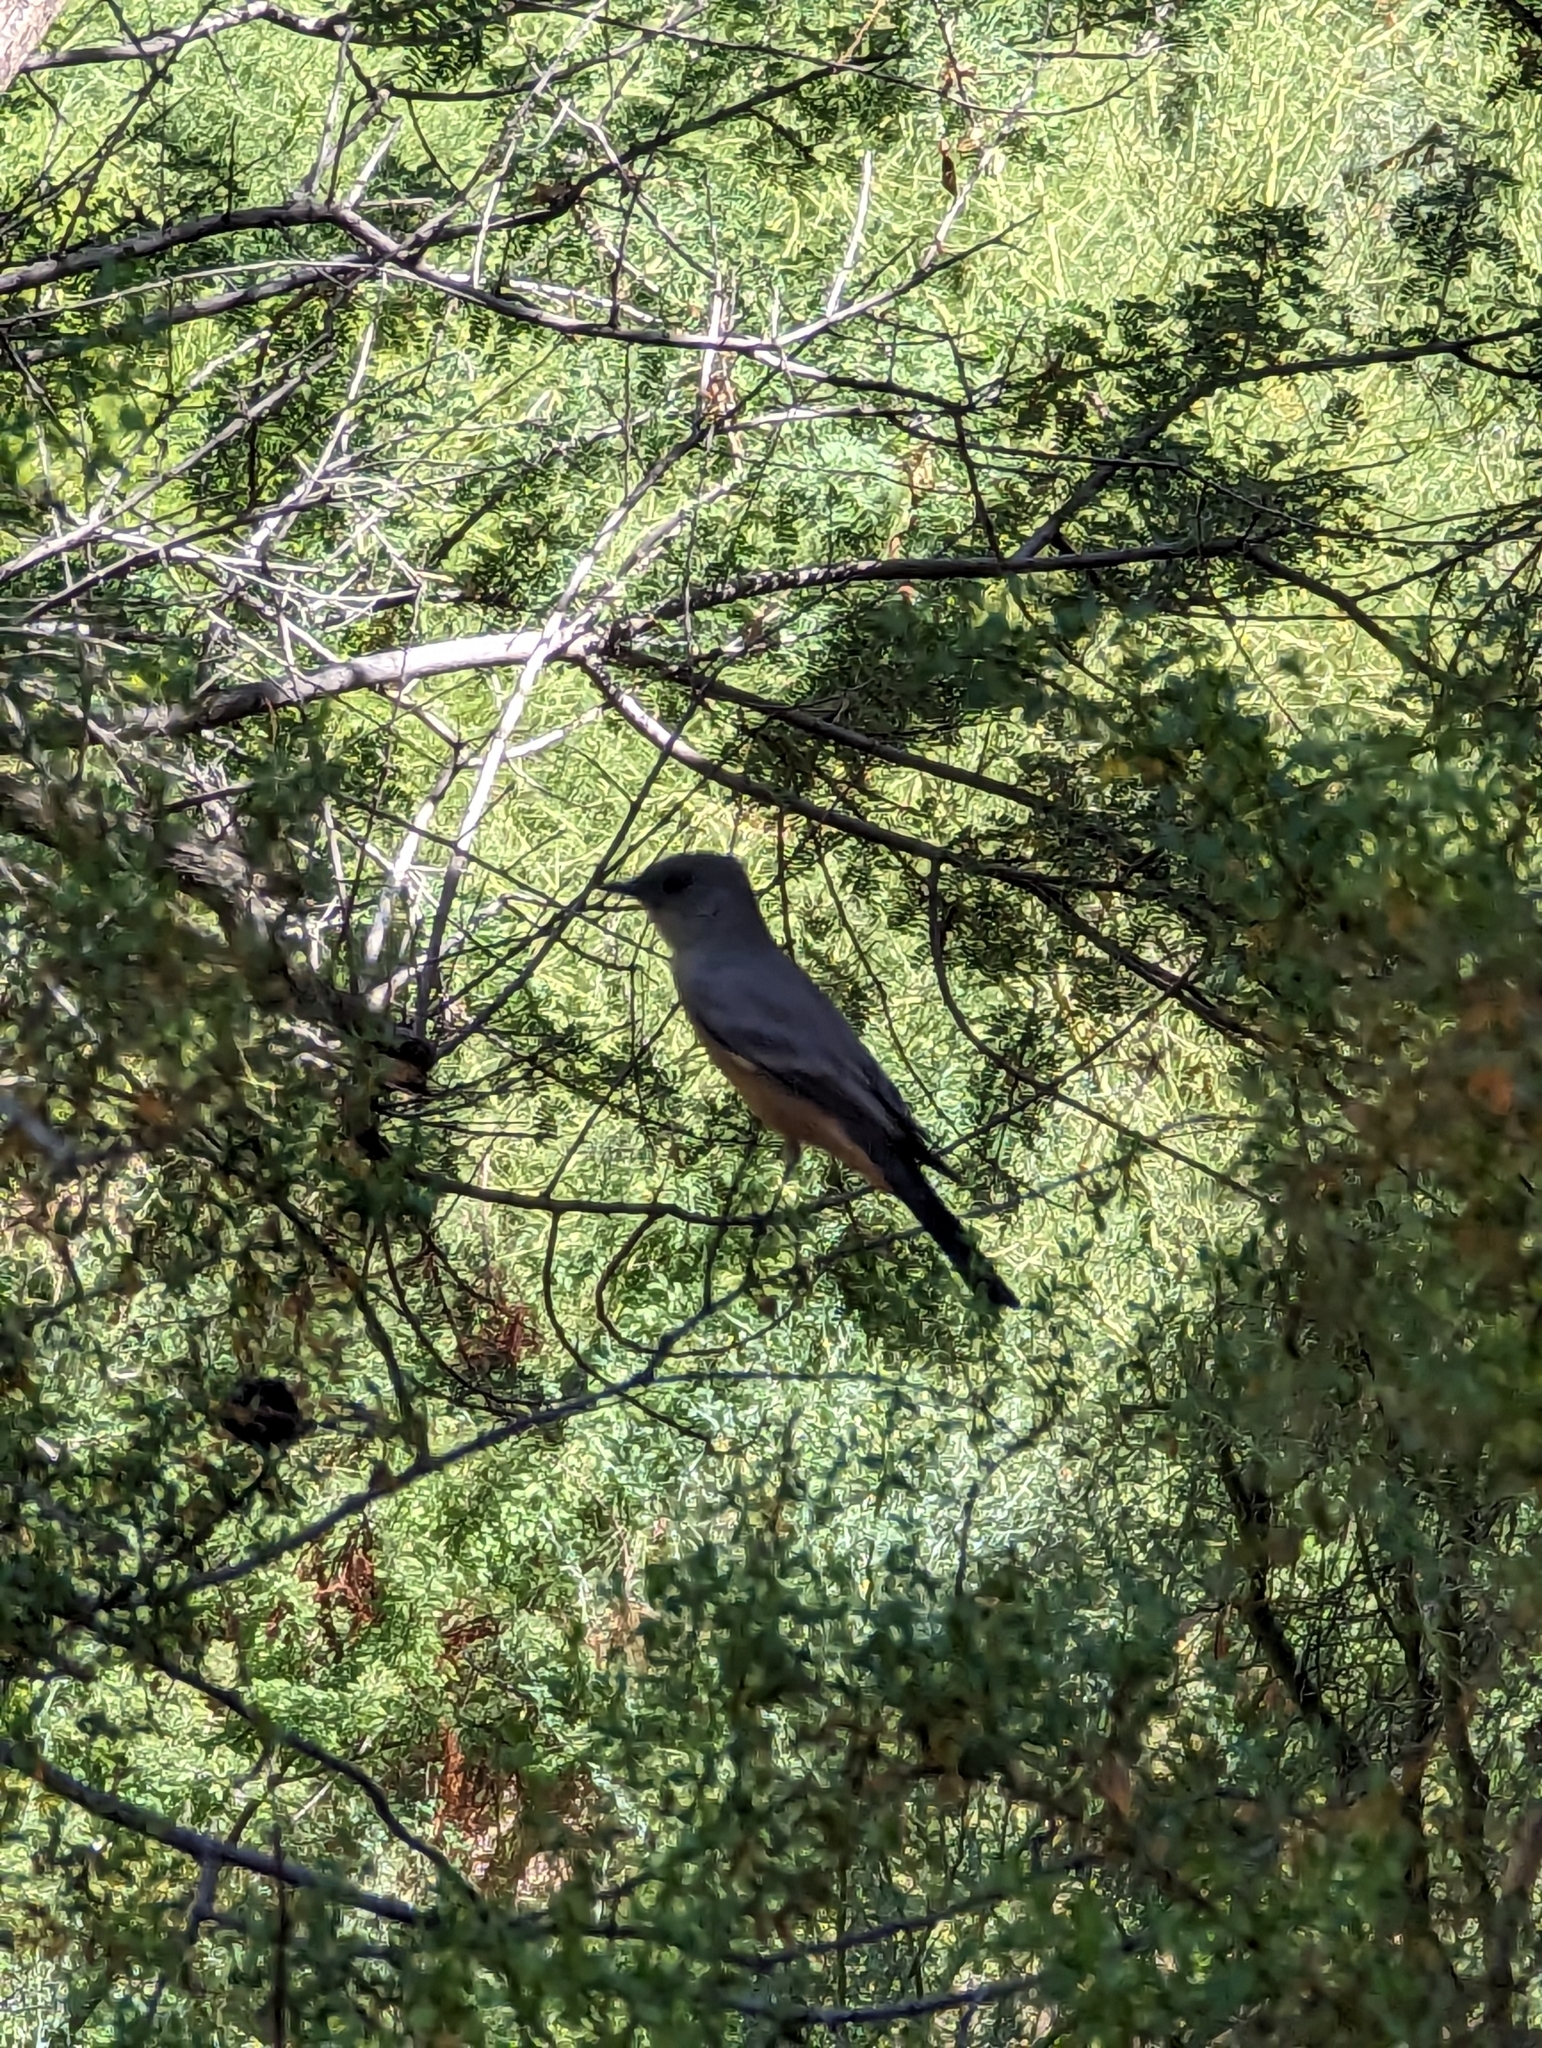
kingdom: Animalia
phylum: Chordata
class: Aves
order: Passeriformes
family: Tyrannidae
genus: Sayornis
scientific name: Sayornis saya
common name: Say's phoebe
